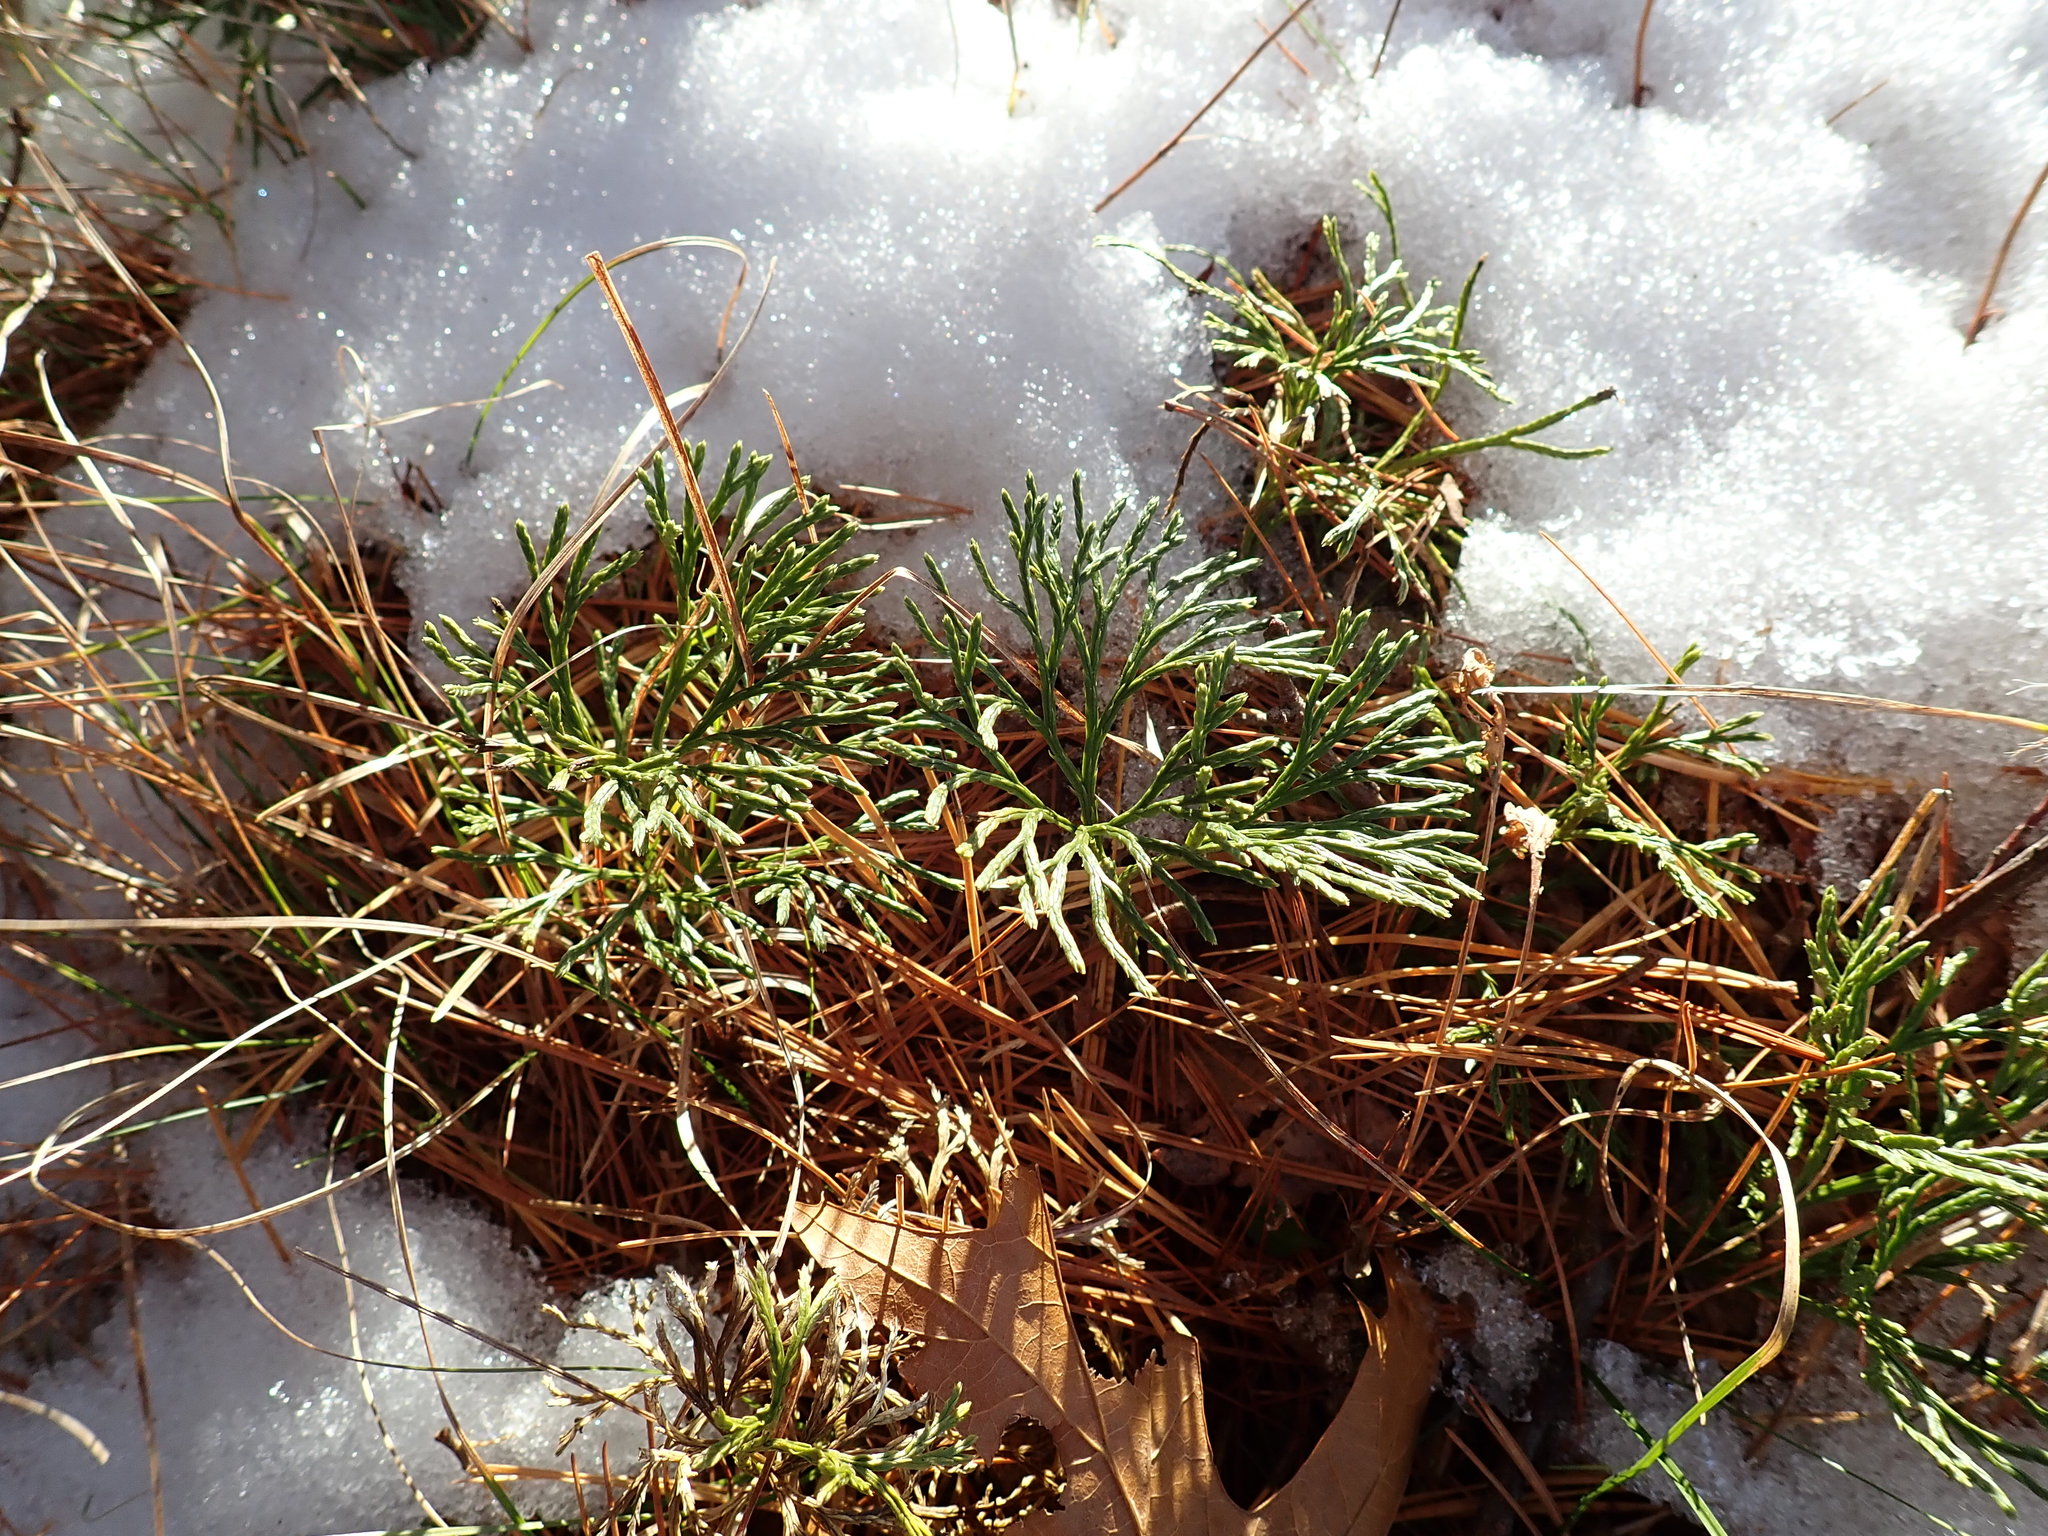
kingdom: Plantae
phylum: Tracheophyta
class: Lycopodiopsida
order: Lycopodiales
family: Lycopodiaceae
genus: Diphasiastrum
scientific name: Diphasiastrum tristachyum
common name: Blue ground-cedar
